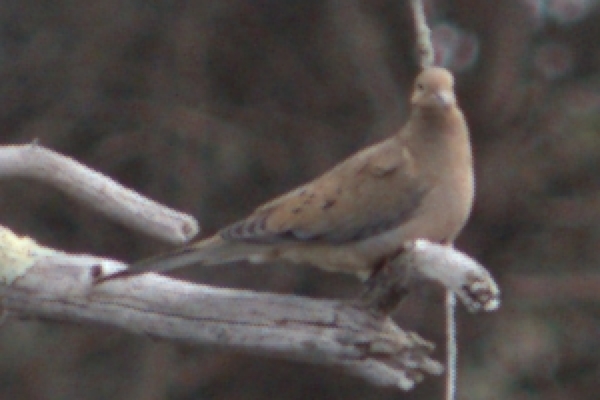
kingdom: Animalia
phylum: Chordata
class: Aves
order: Columbiformes
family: Columbidae
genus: Zenaida
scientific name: Zenaida macroura
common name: Mourning dove
